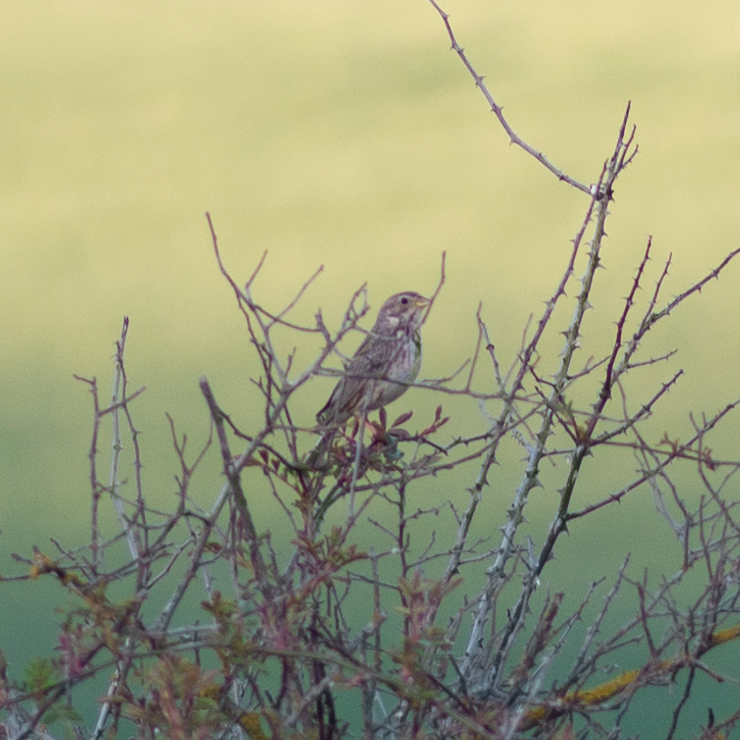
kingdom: Animalia
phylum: Chordata
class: Aves
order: Passeriformes
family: Emberizidae
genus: Emberiza
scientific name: Emberiza calandra
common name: Corn bunting
